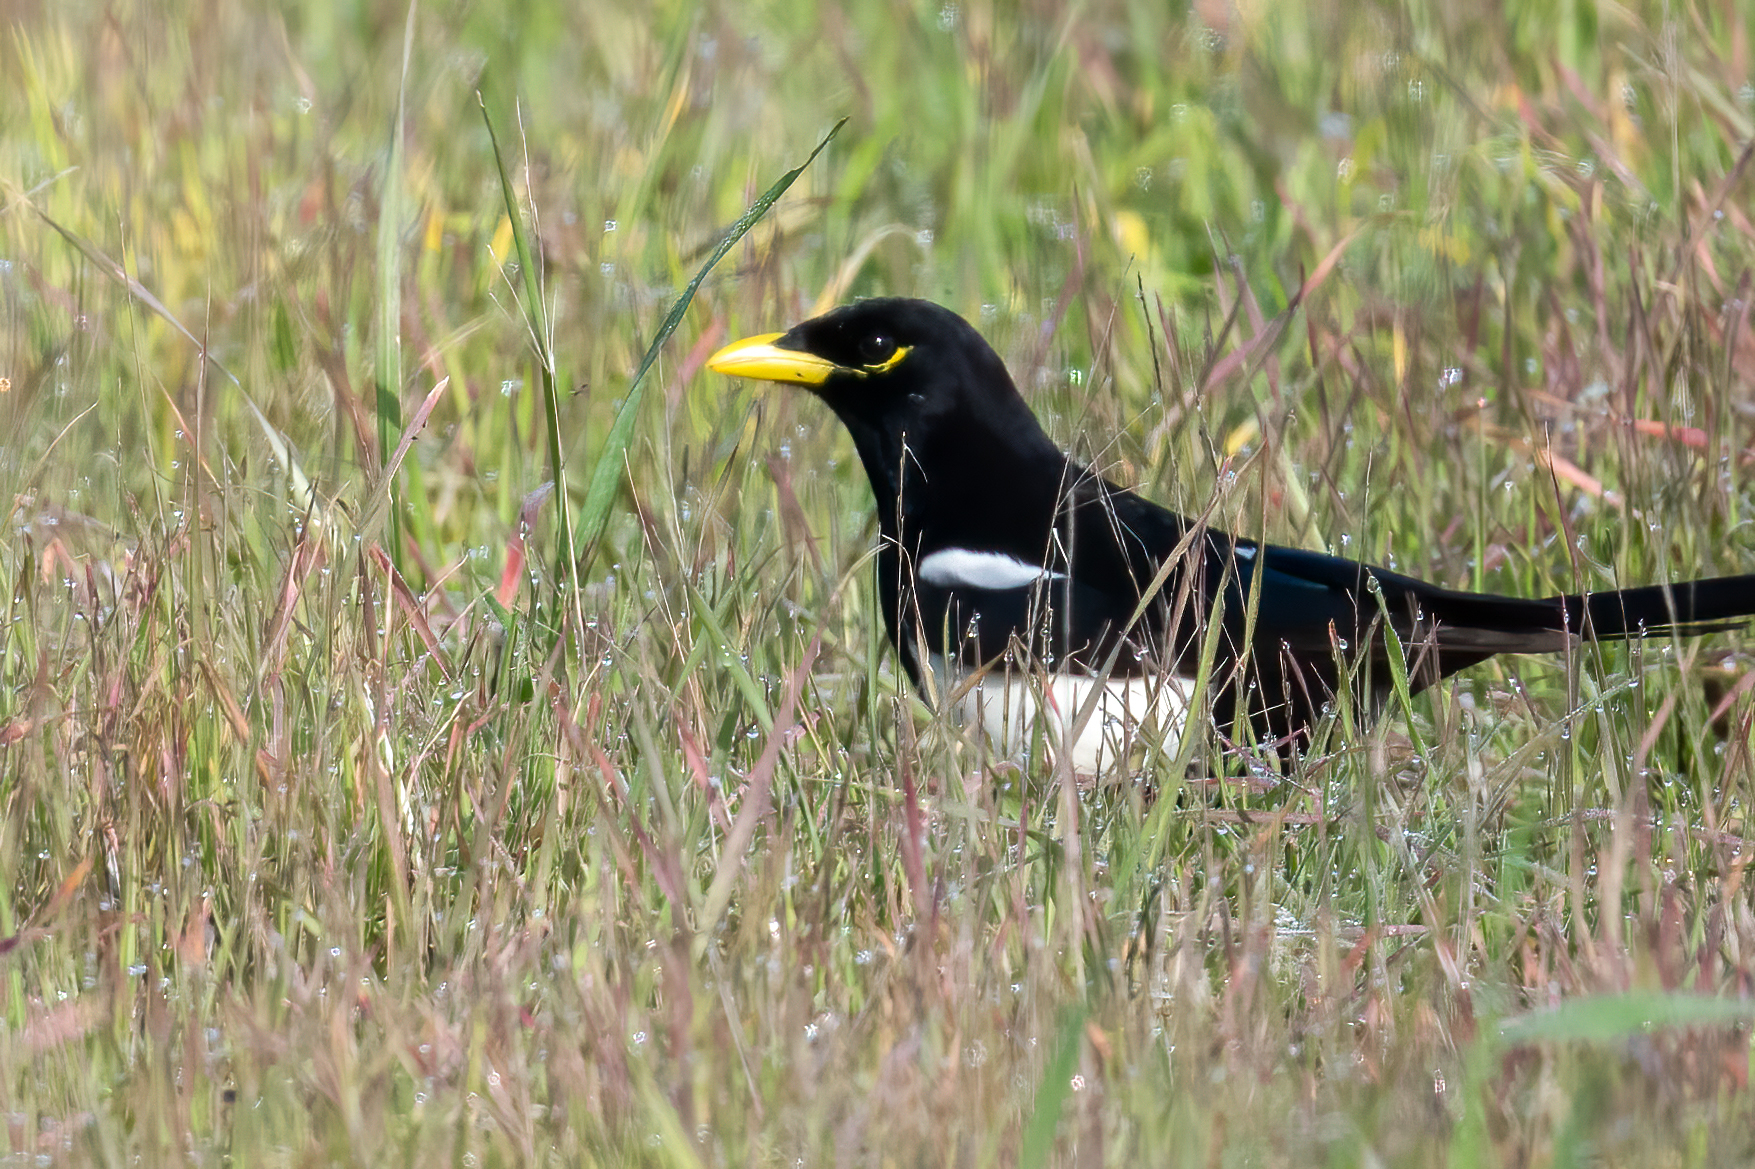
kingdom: Animalia
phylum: Chordata
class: Aves
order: Passeriformes
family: Corvidae
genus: Pica
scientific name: Pica nuttalli
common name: Yellow-billed magpie
